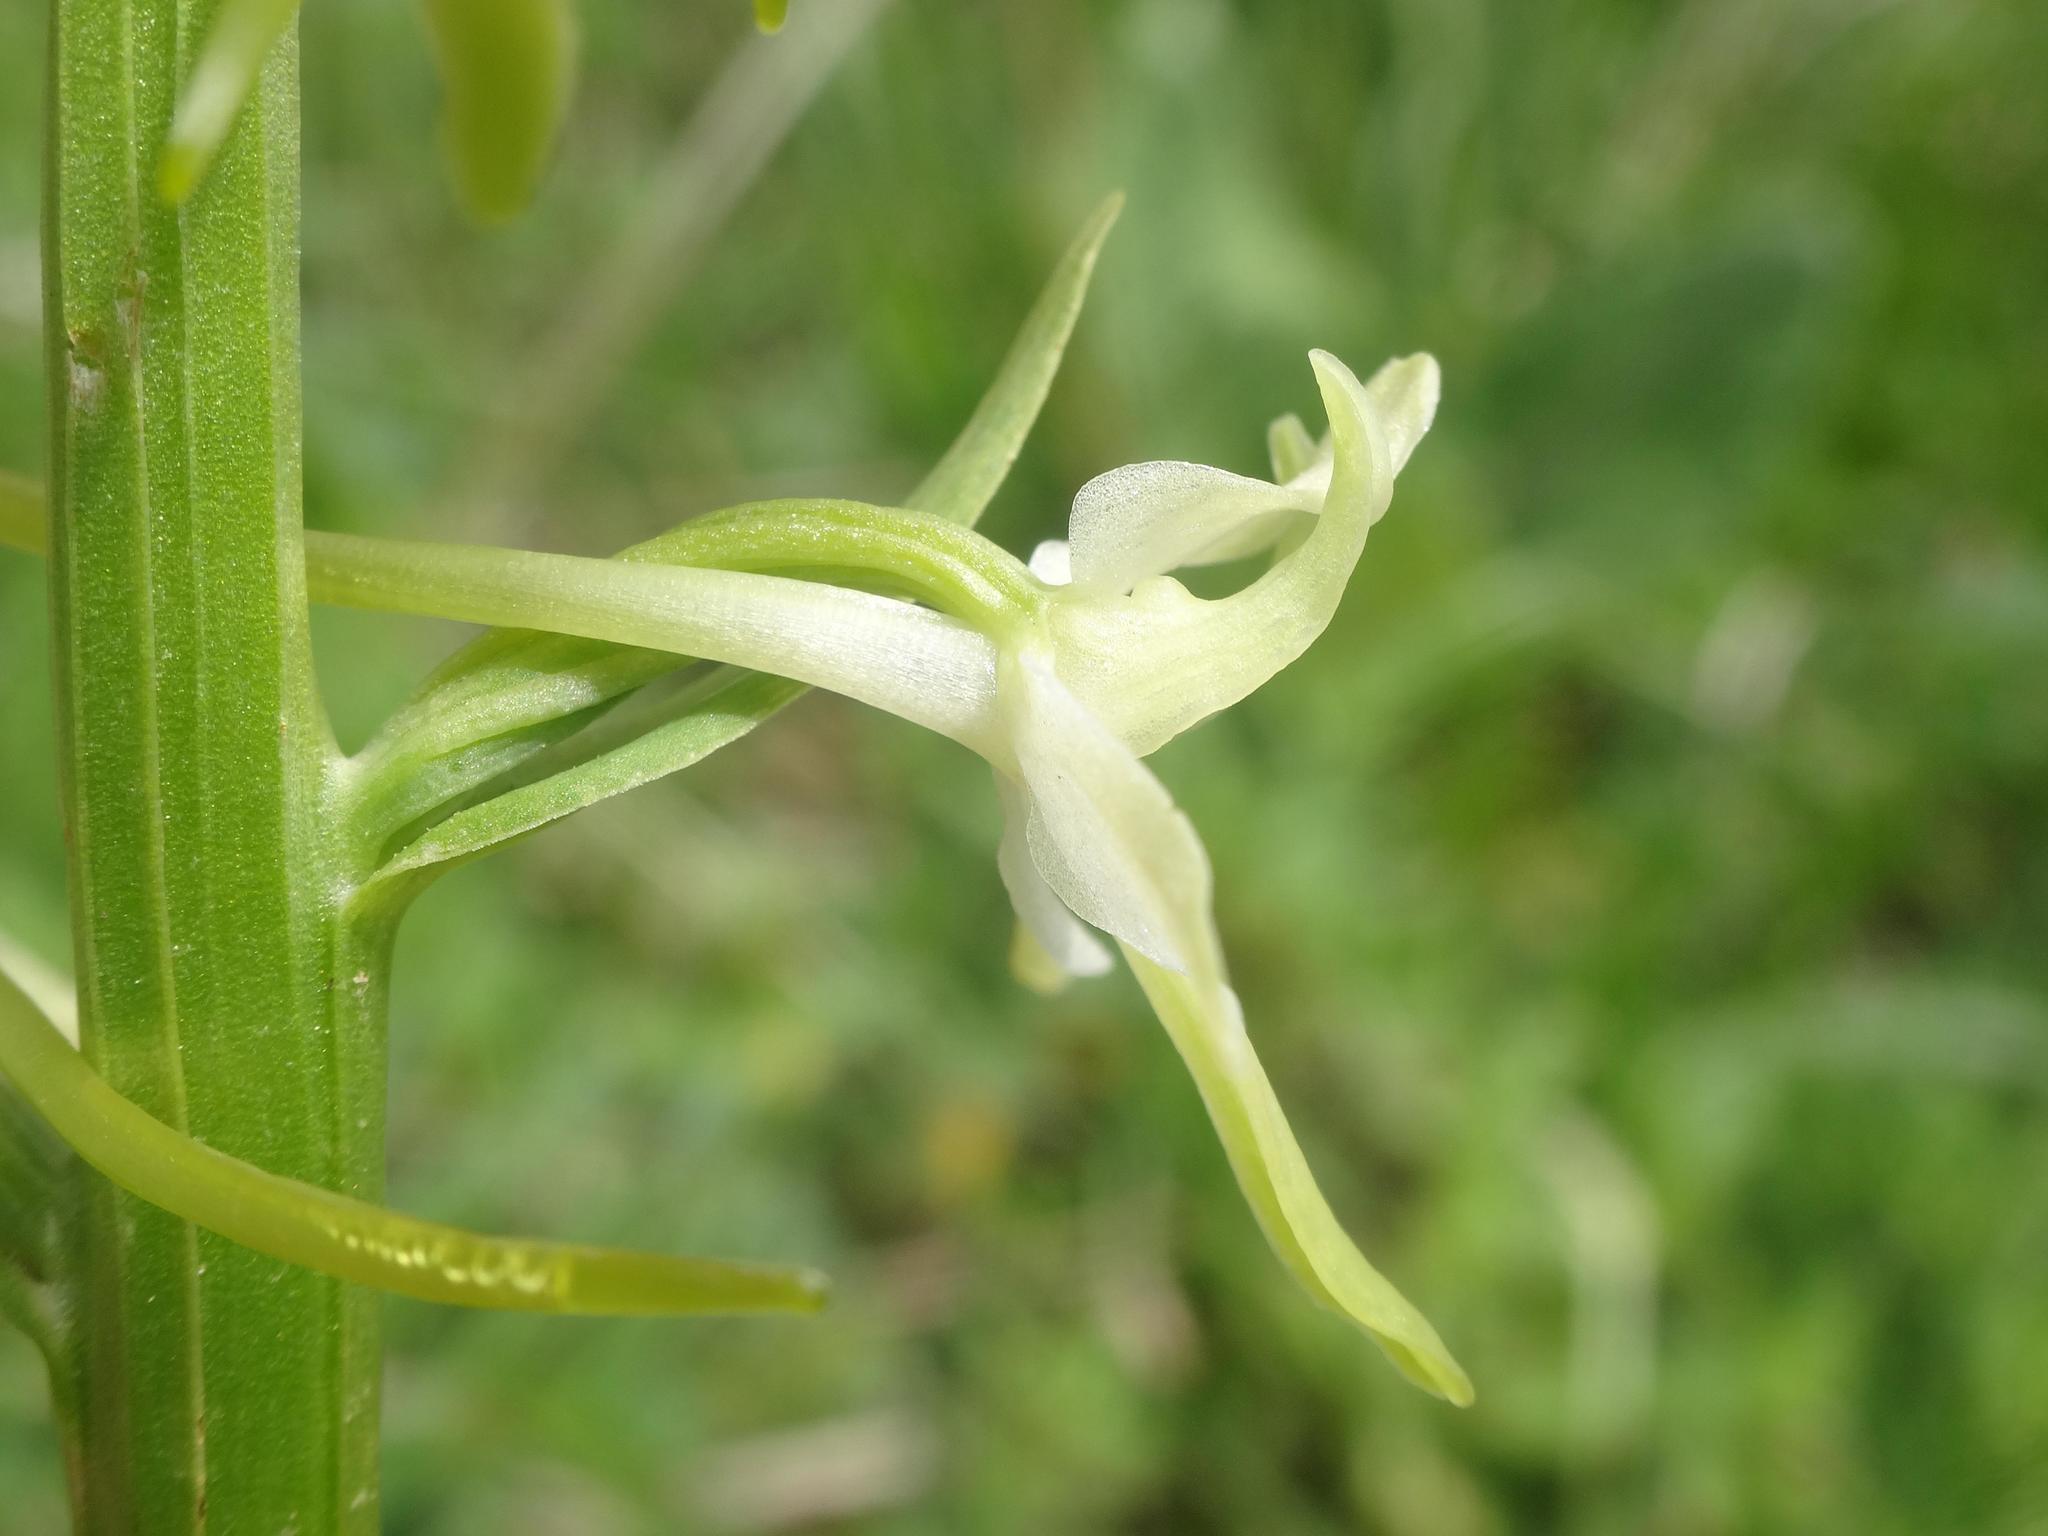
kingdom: Plantae
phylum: Tracheophyta
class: Liliopsida
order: Asparagales
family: Orchidaceae
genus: Platanthera
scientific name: Platanthera bifolia
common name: Lesser butterfly-orchid
